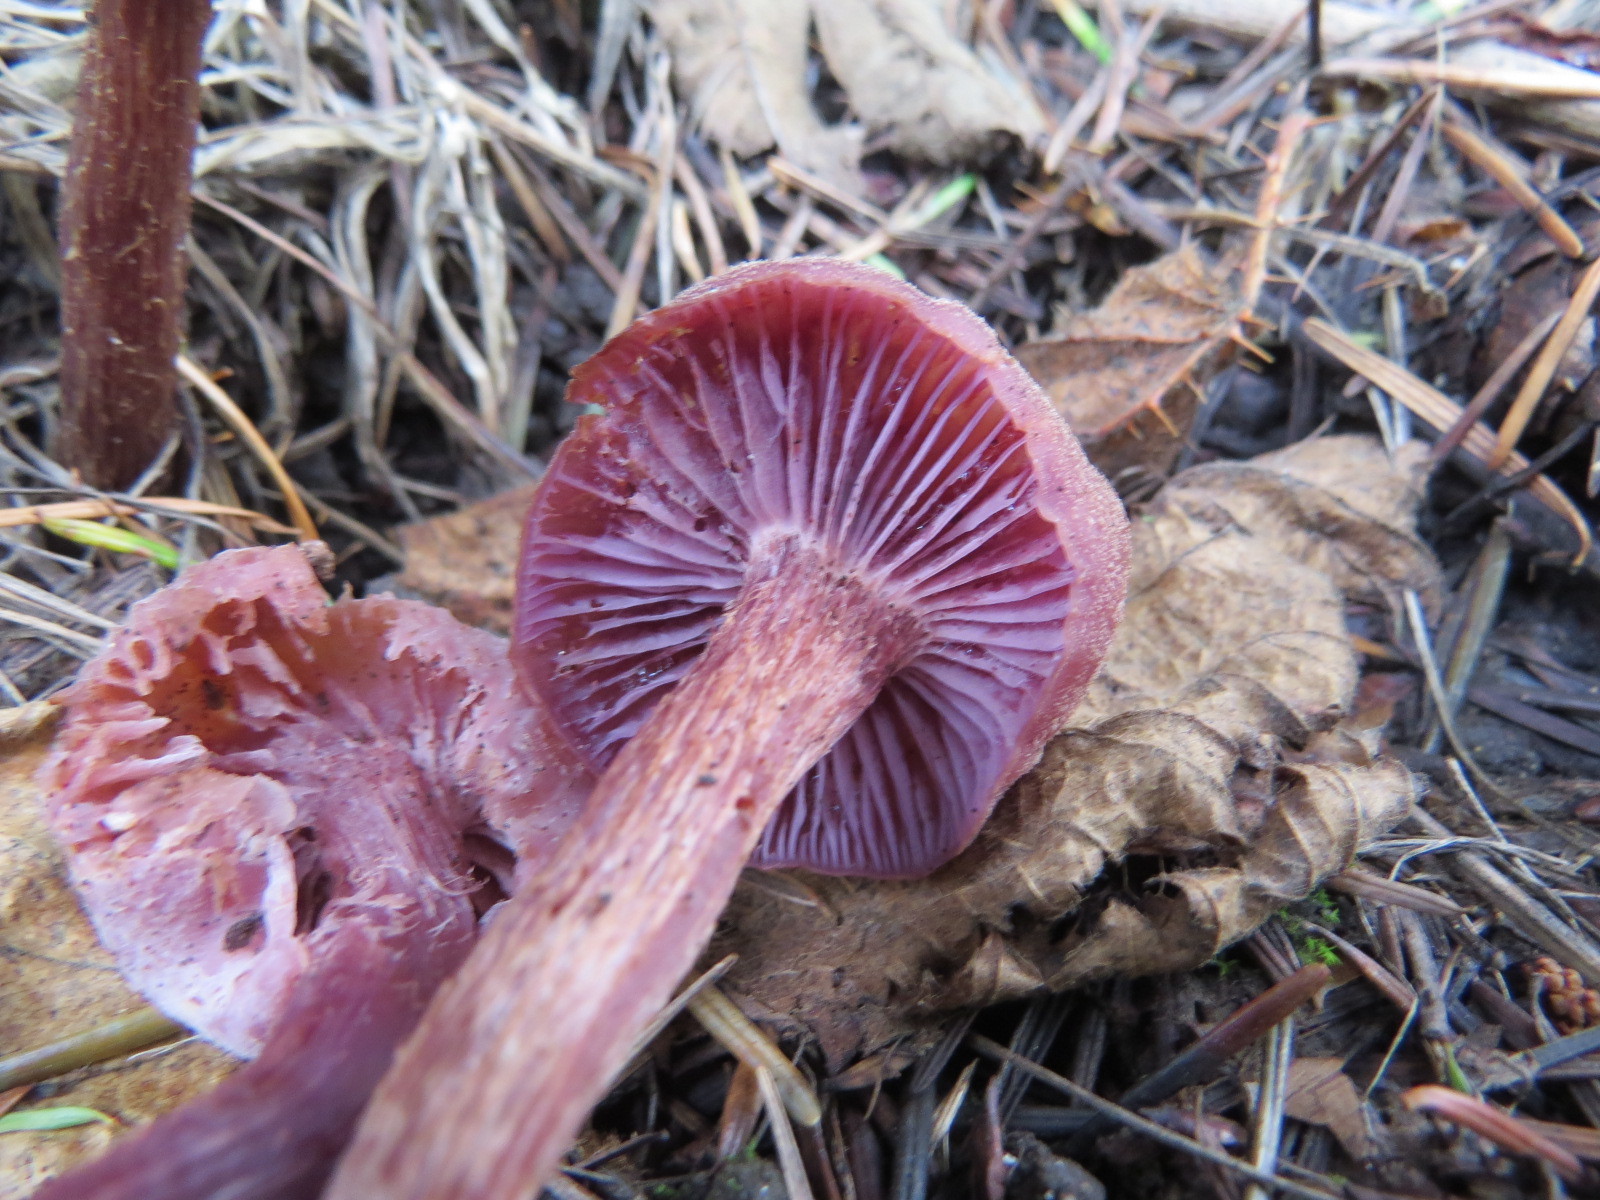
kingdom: Fungi
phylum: Basidiomycota
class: Agaricomycetes
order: Agaricales
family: Hydnangiaceae
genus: Laccaria
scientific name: Laccaria amethysteo-occidentalis
